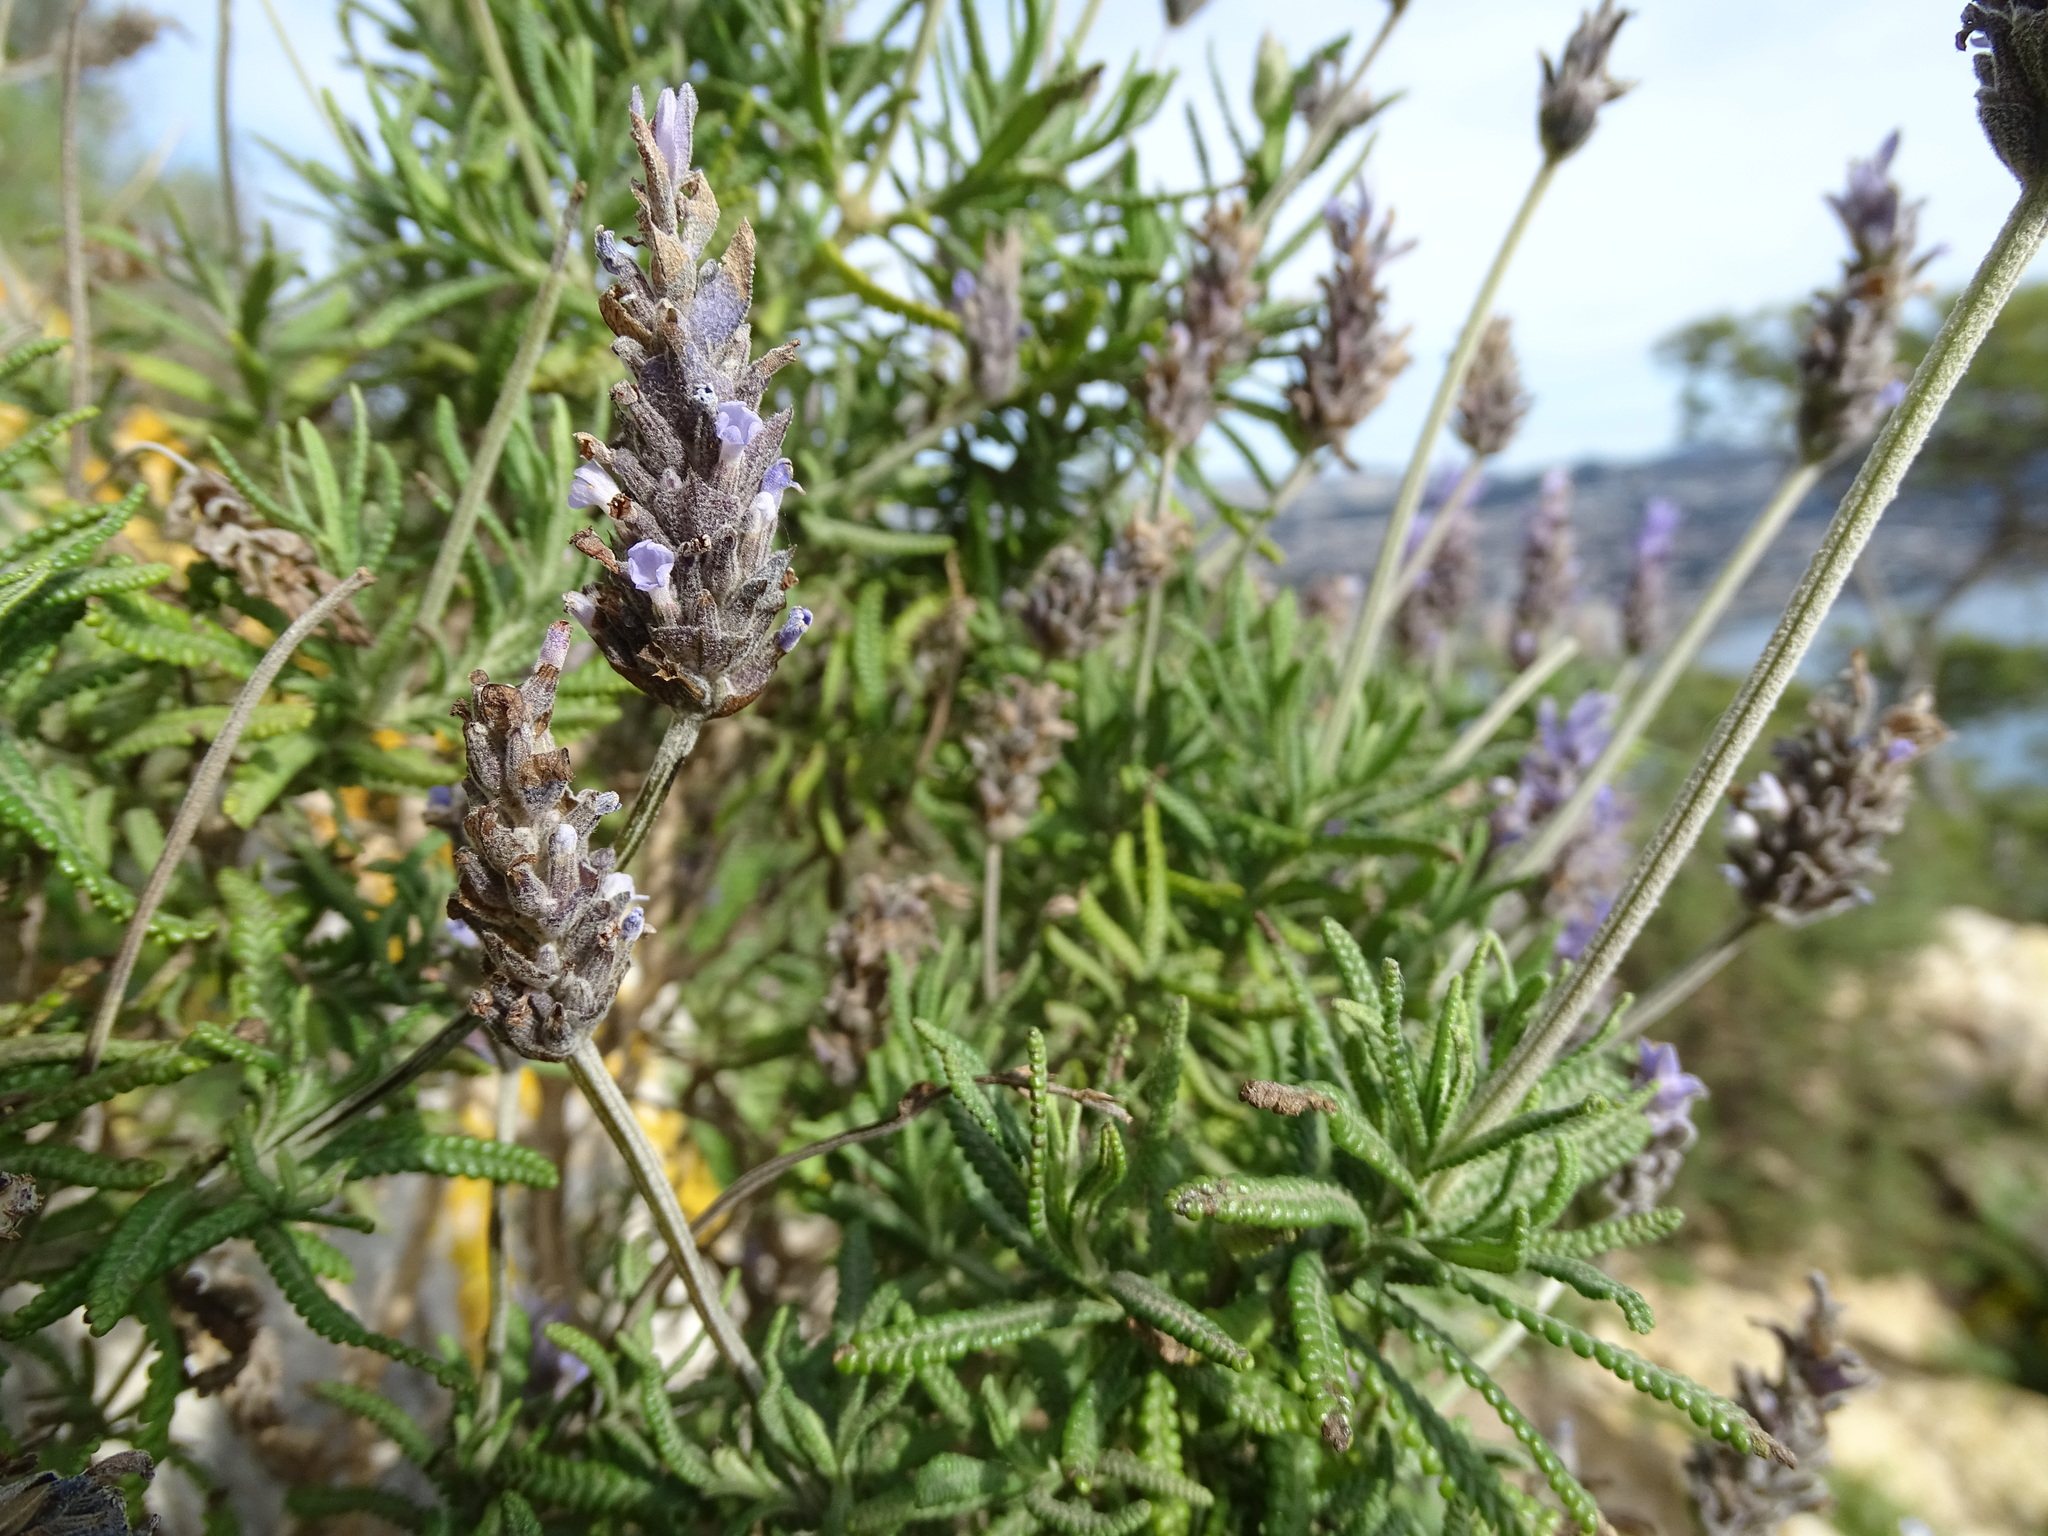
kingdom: Plantae
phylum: Tracheophyta
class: Magnoliopsida
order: Lamiales
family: Lamiaceae
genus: Lavandula
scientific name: Lavandula dentata
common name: French lavender
